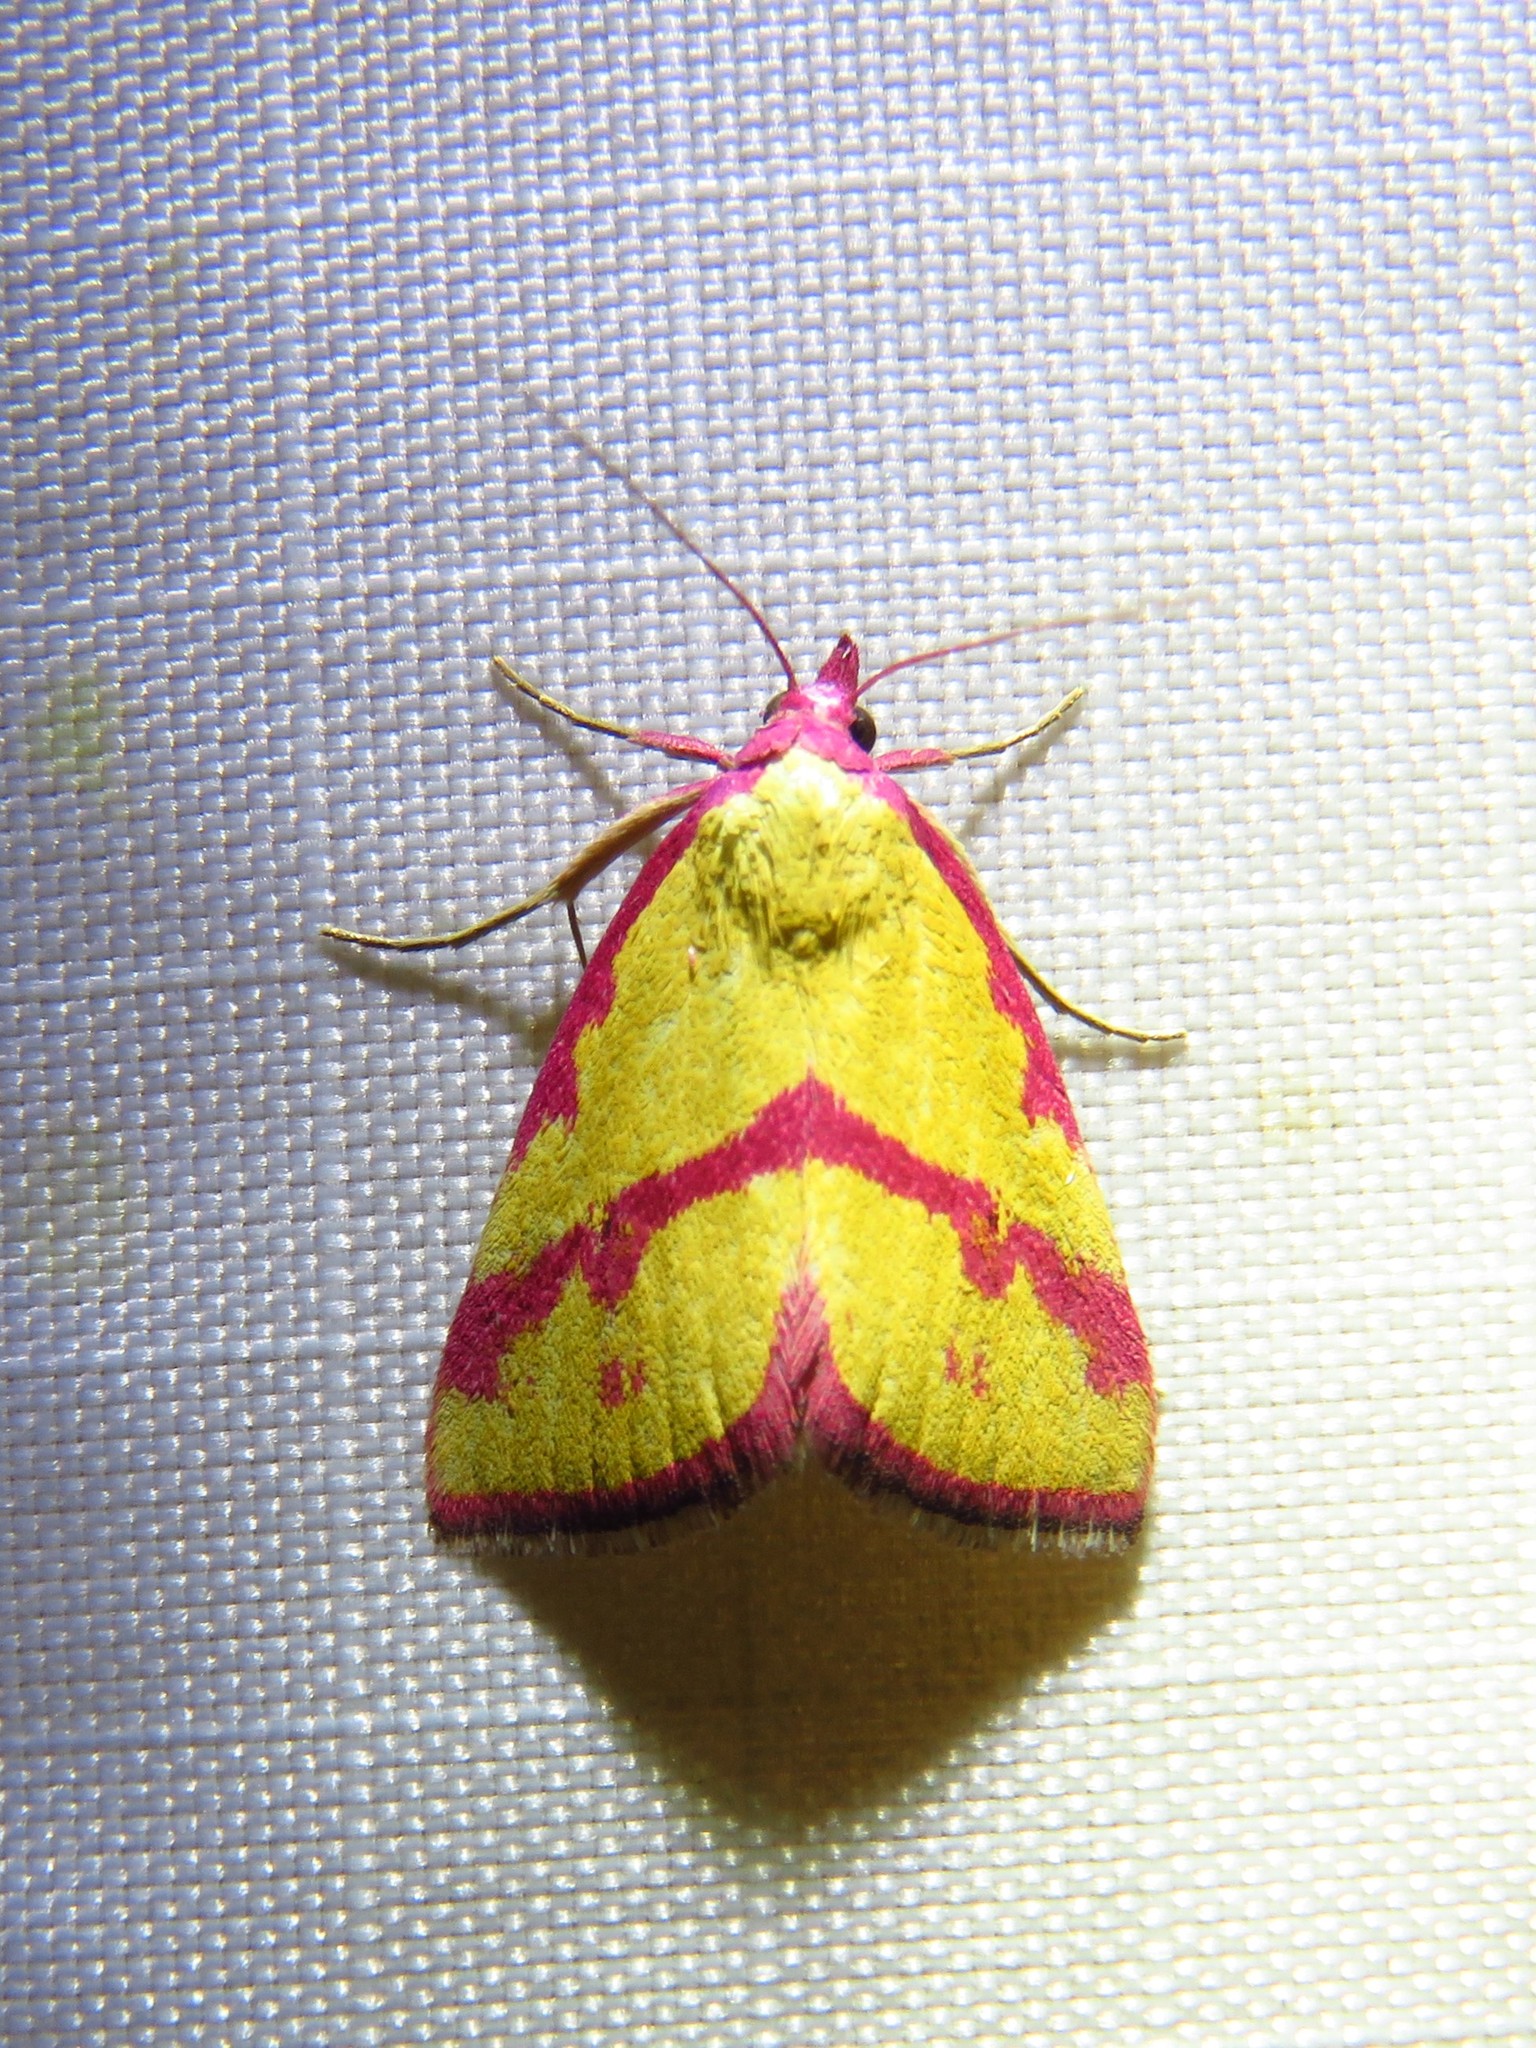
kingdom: Animalia
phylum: Arthropoda
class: Insecta
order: Lepidoptera
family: Erebidae
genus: Phytometra
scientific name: Phytometra ernestinana
